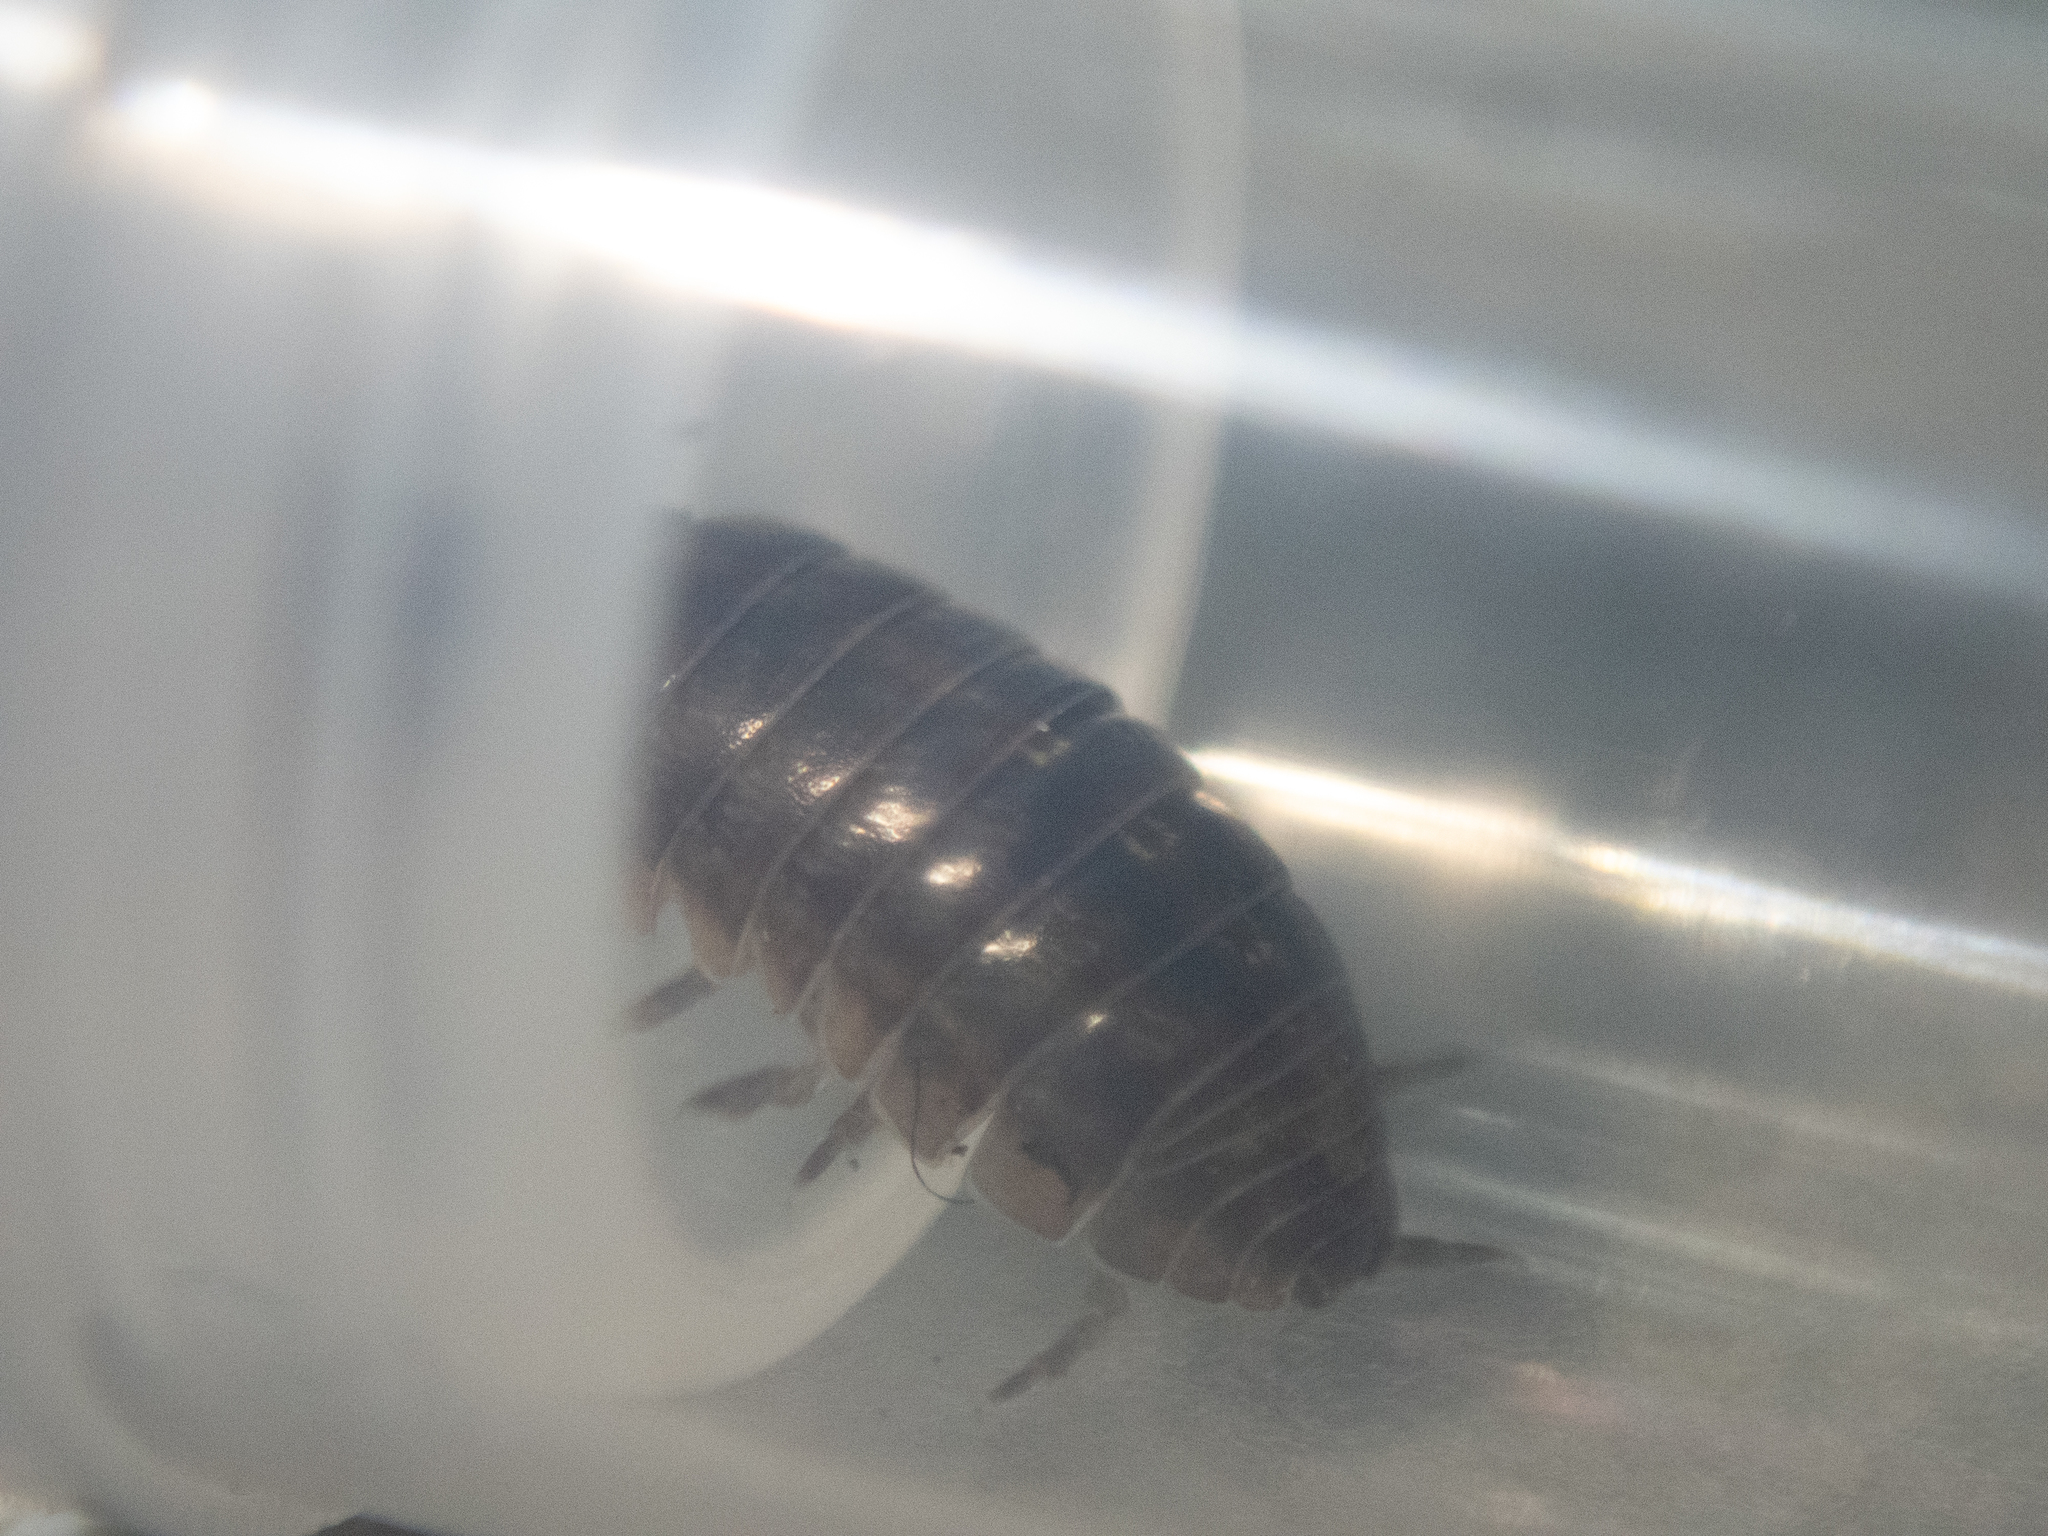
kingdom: Animalia
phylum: Arthropoda
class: Malacostraca
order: Isopoda
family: Armadillidiidae
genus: Armadillidium
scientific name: Armadillidium vulgare
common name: Common pill woodlouse
